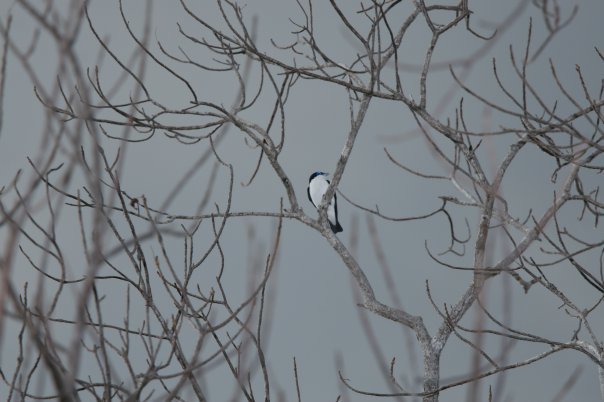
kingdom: Animalia
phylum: Chordata
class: Aves
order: Passeriformes
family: Vangidae
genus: Leptopterus
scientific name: Leptopterus chabert
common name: Chabert vanga
